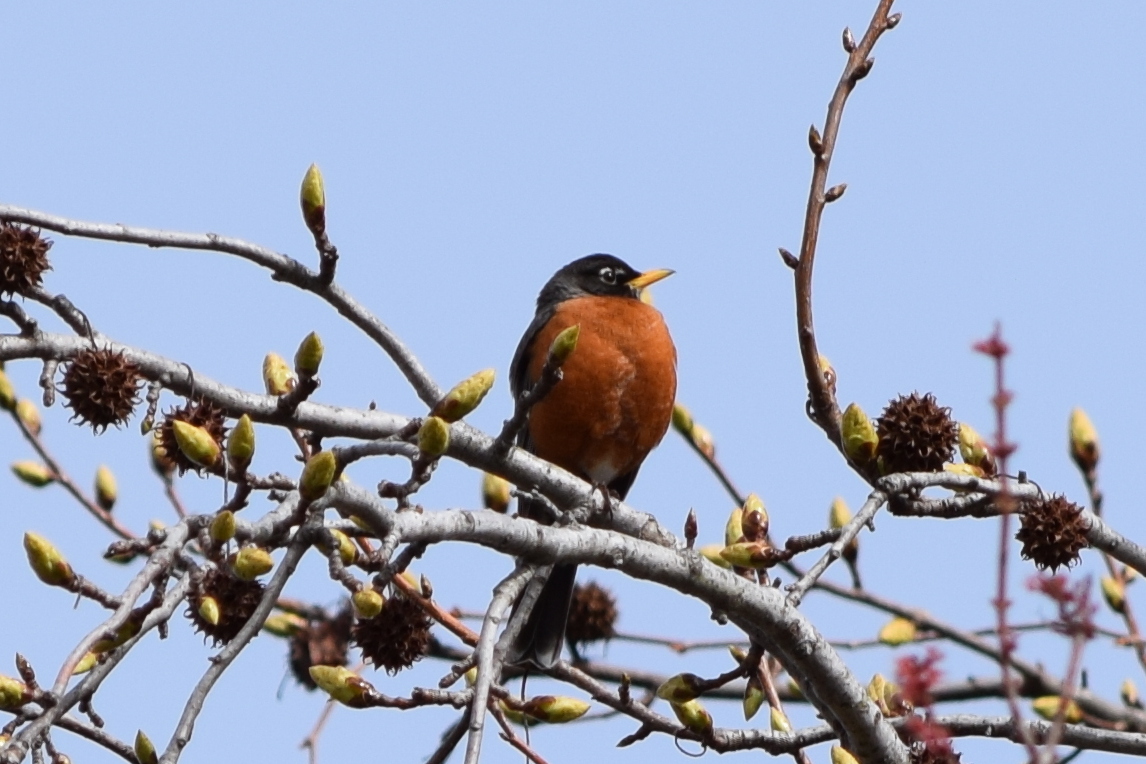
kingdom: Animalia
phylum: Chordata
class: Aves
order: Passeriformes
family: Turdidae
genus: Turdus
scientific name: Turdus migratorius
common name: American robin
